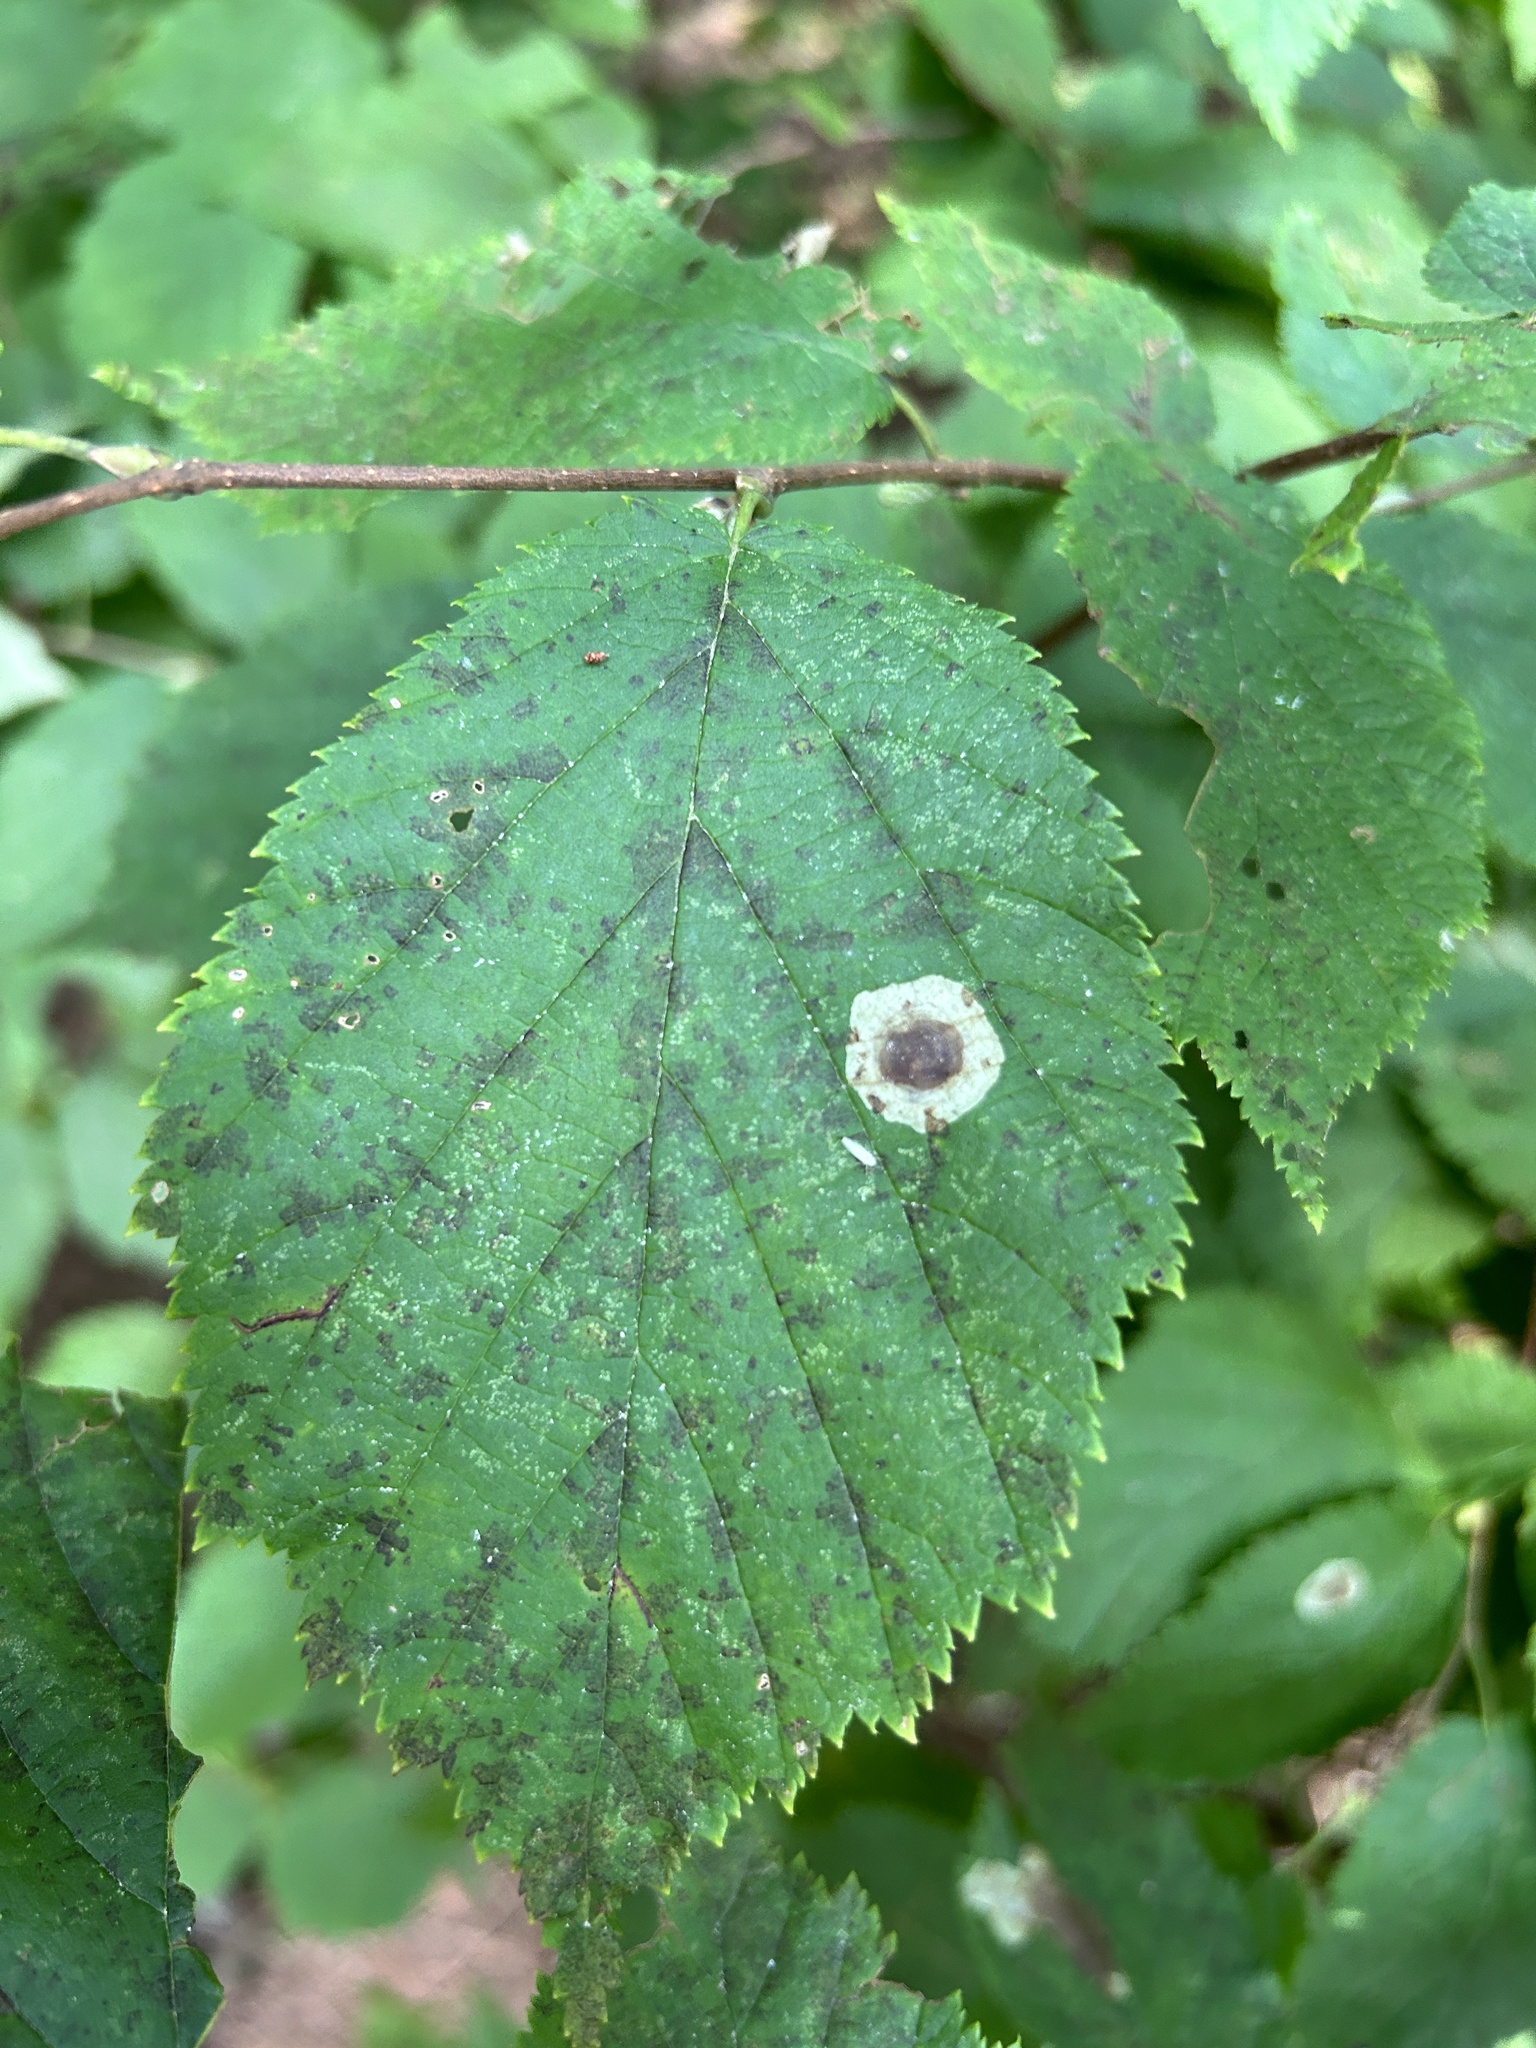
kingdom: Animalia
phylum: Arthropoda
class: Insecta
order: Lepidoptera
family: Gracillariidae
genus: Cameraria
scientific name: Cameraria corylisella
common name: Hazel blotchminer
